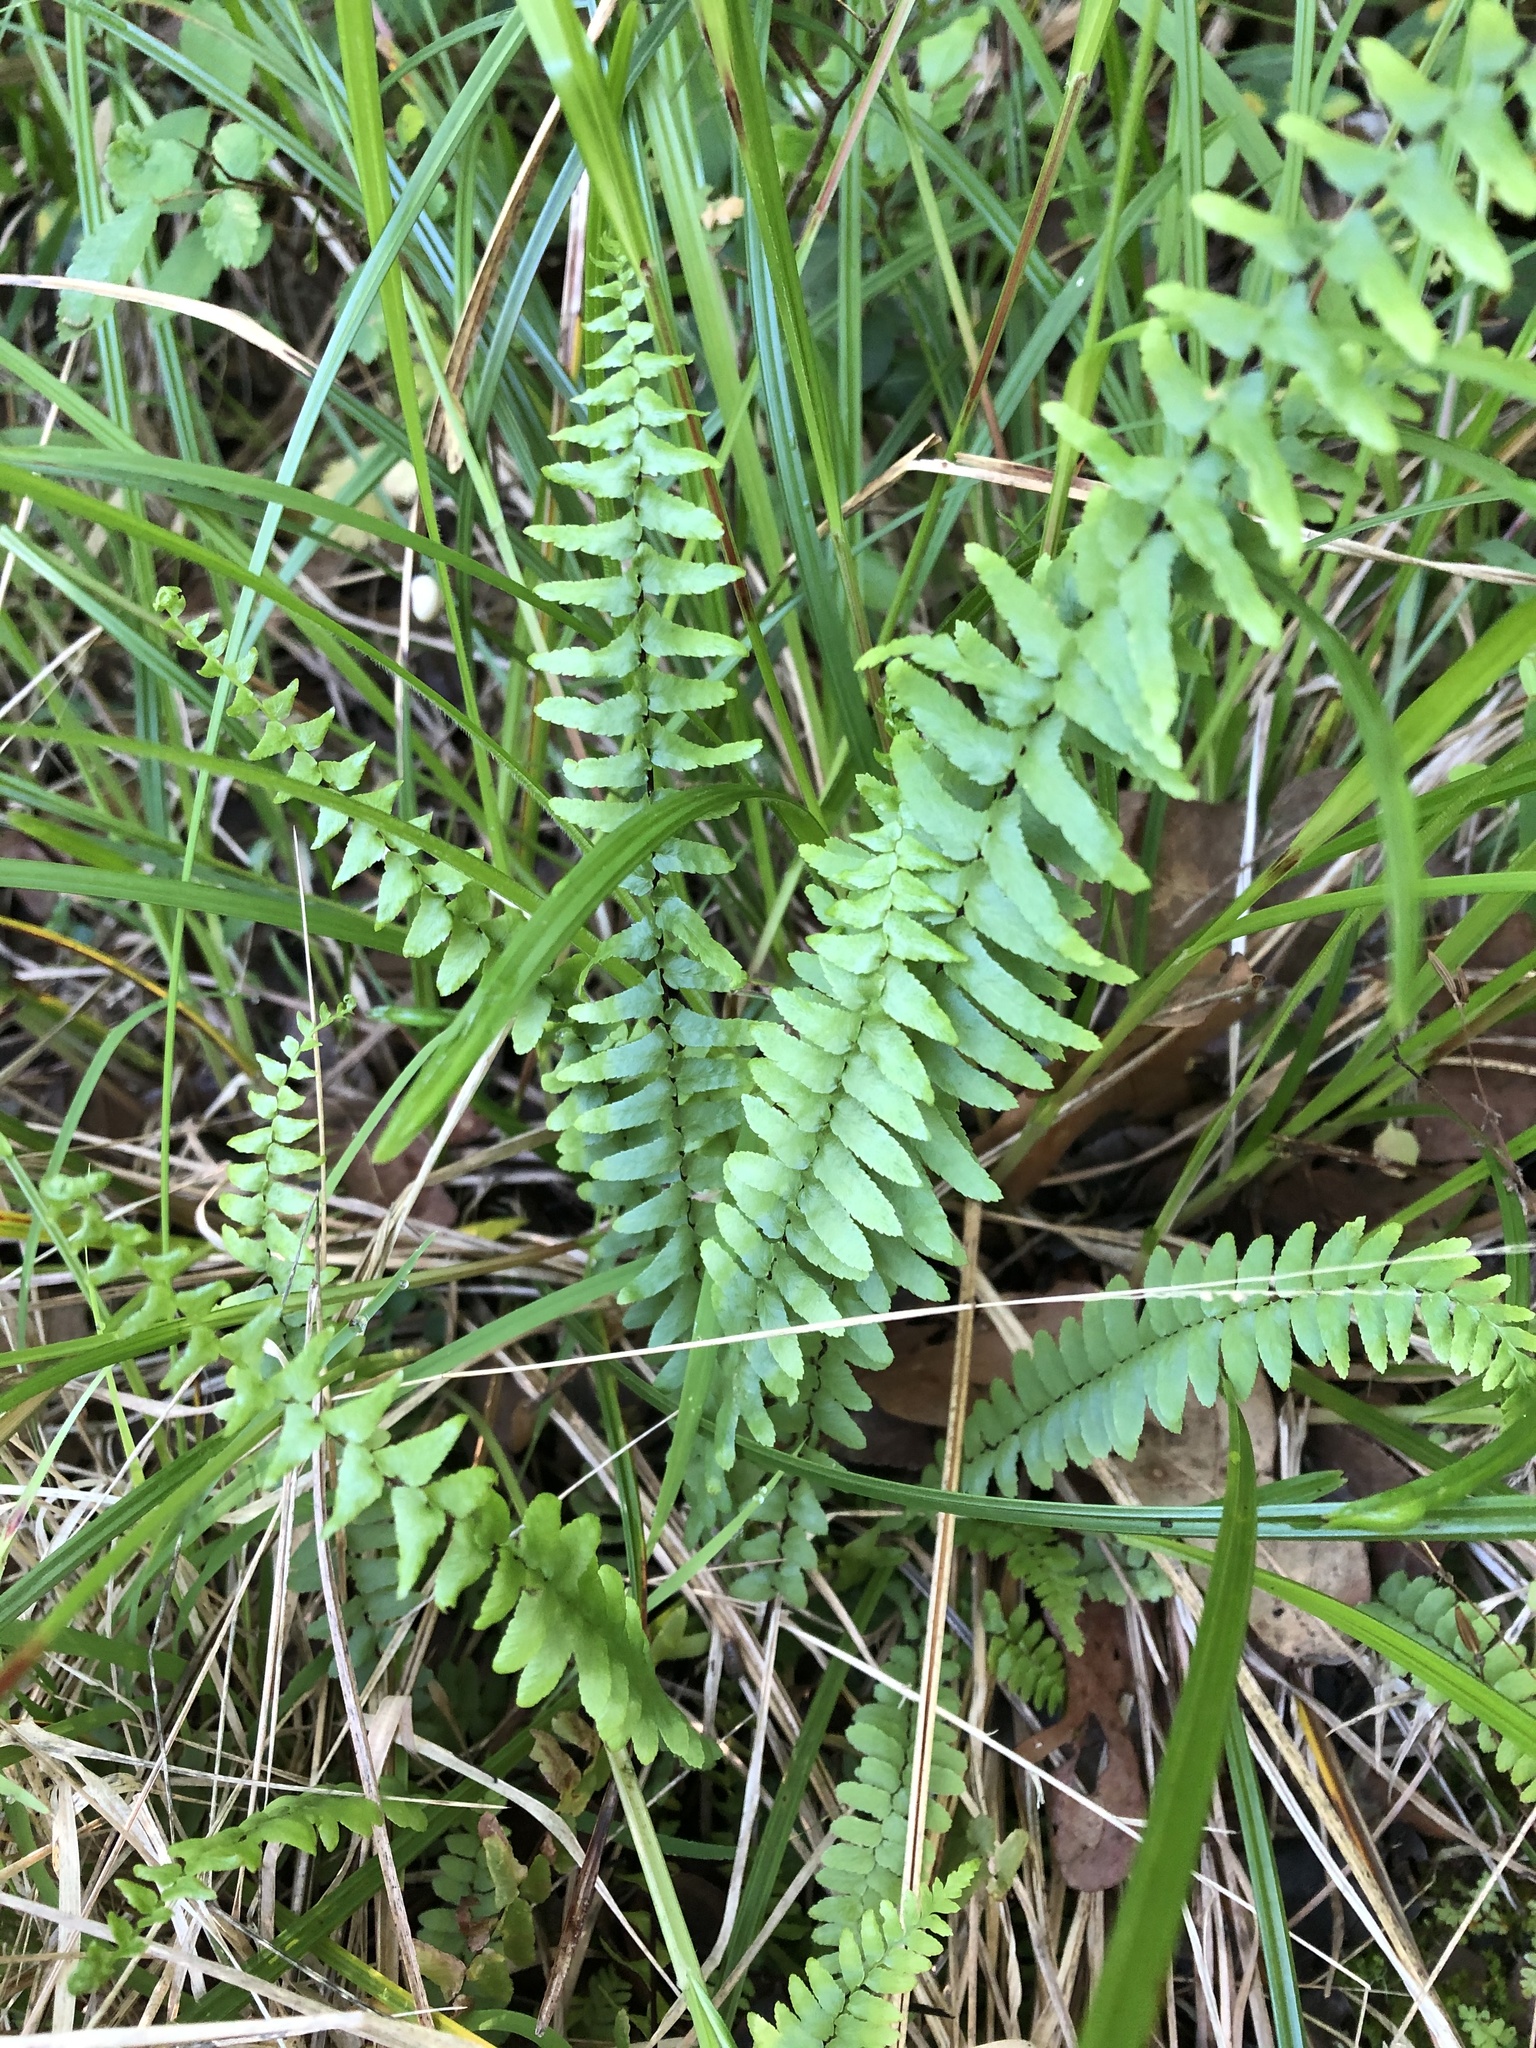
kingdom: Plantae
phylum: Tracheophyta
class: Polypodiopsida
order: Polypodiales
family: Aspleniaceae
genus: Asplenium
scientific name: Asplenium platyneuron
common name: Ebony spleenwort
